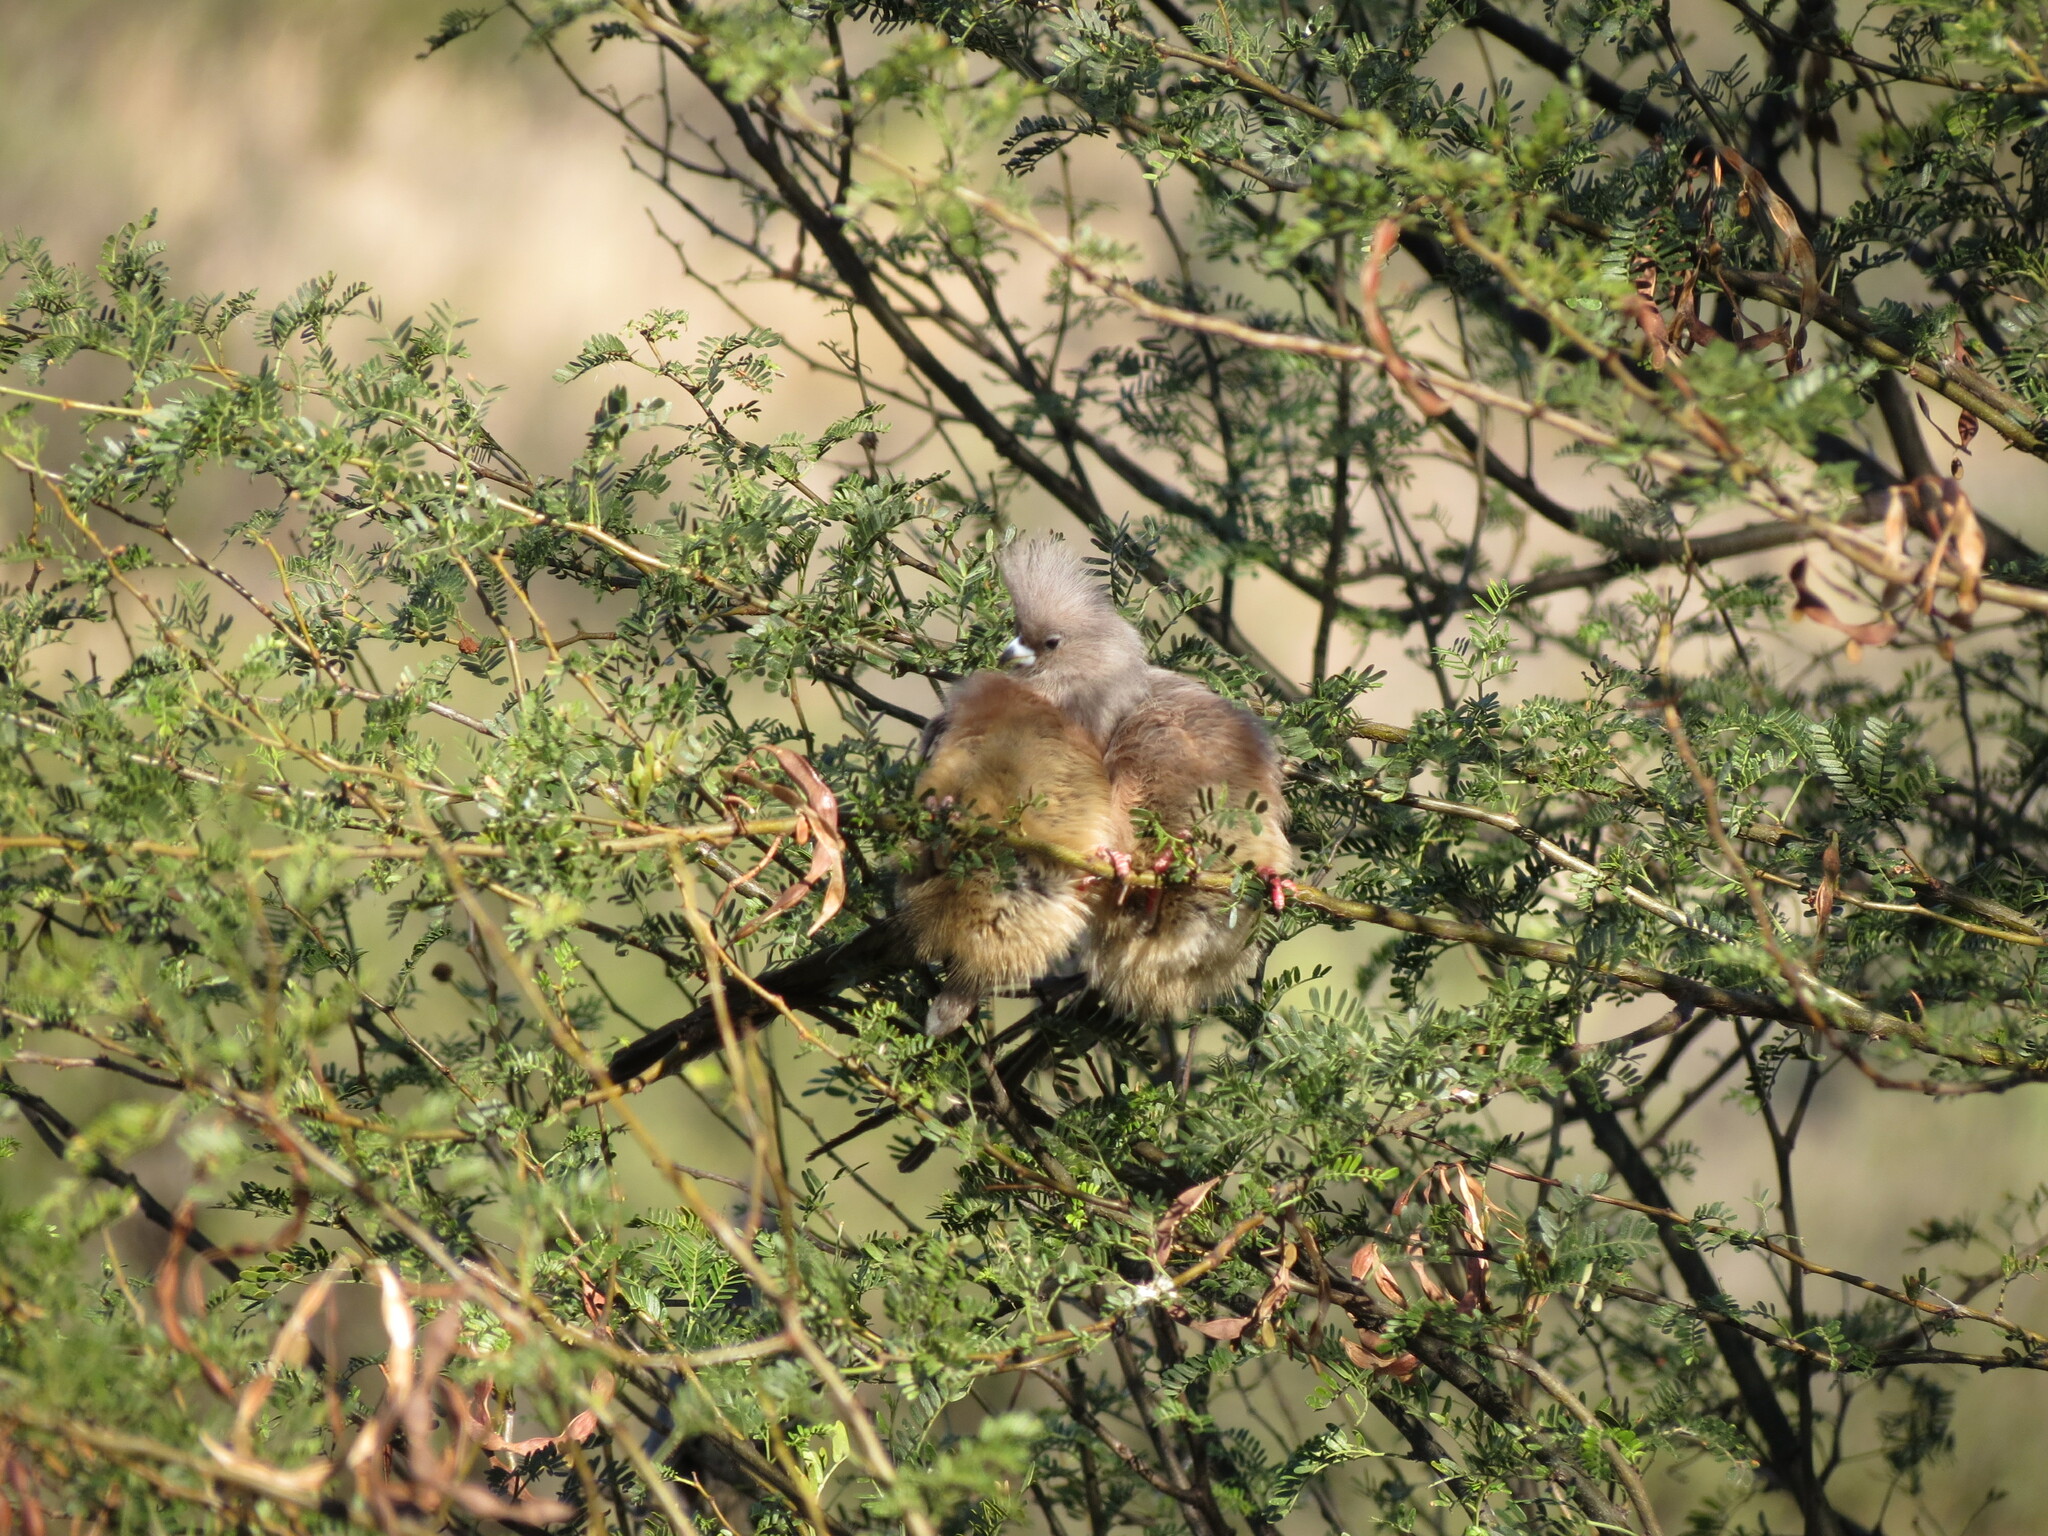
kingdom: Animalia
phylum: Chordata
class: Aves
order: Coliiformes
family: Coliidae
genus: Colius
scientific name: Colius colius
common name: White-backed mousebird
